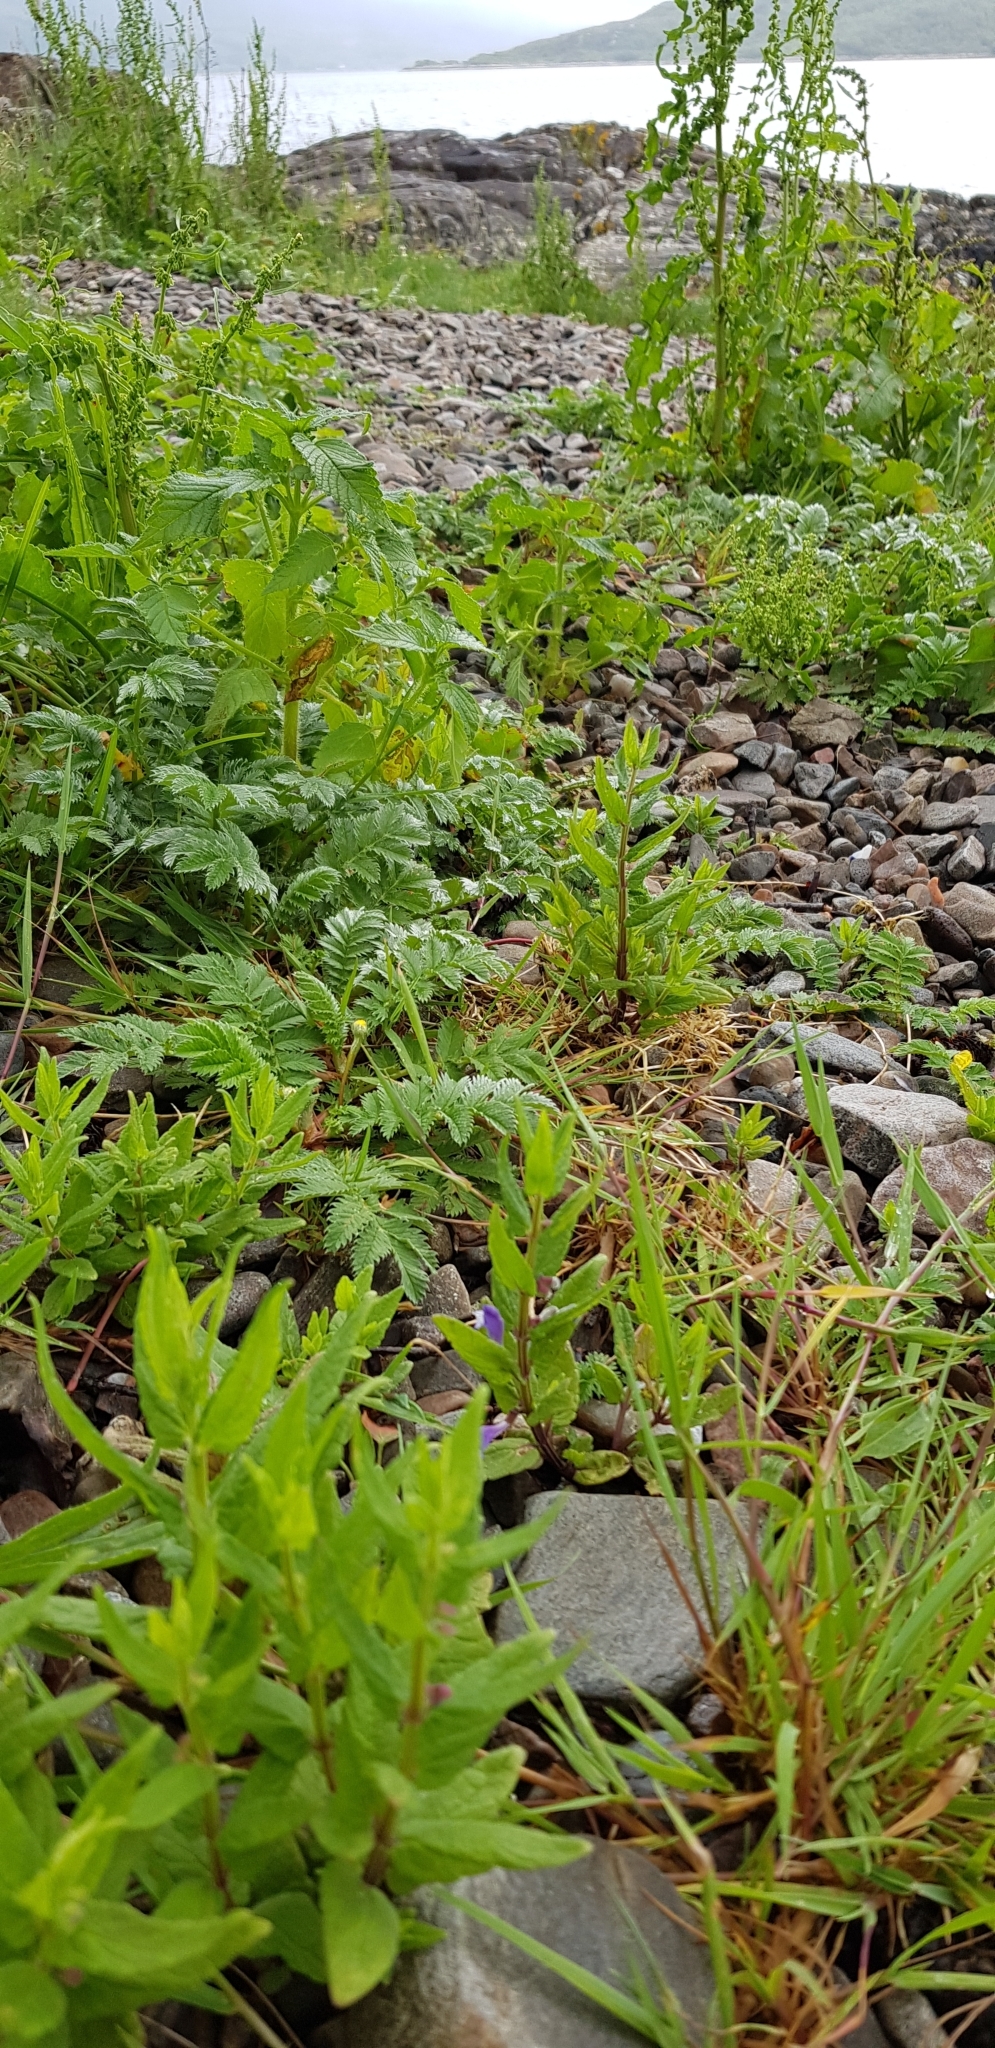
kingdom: Plantae
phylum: Tracheophyta
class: Magnoliopsida
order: Lamiales
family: Lamiaceae
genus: Scutellaria
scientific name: Scutellaria galericulata
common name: Skullcap
